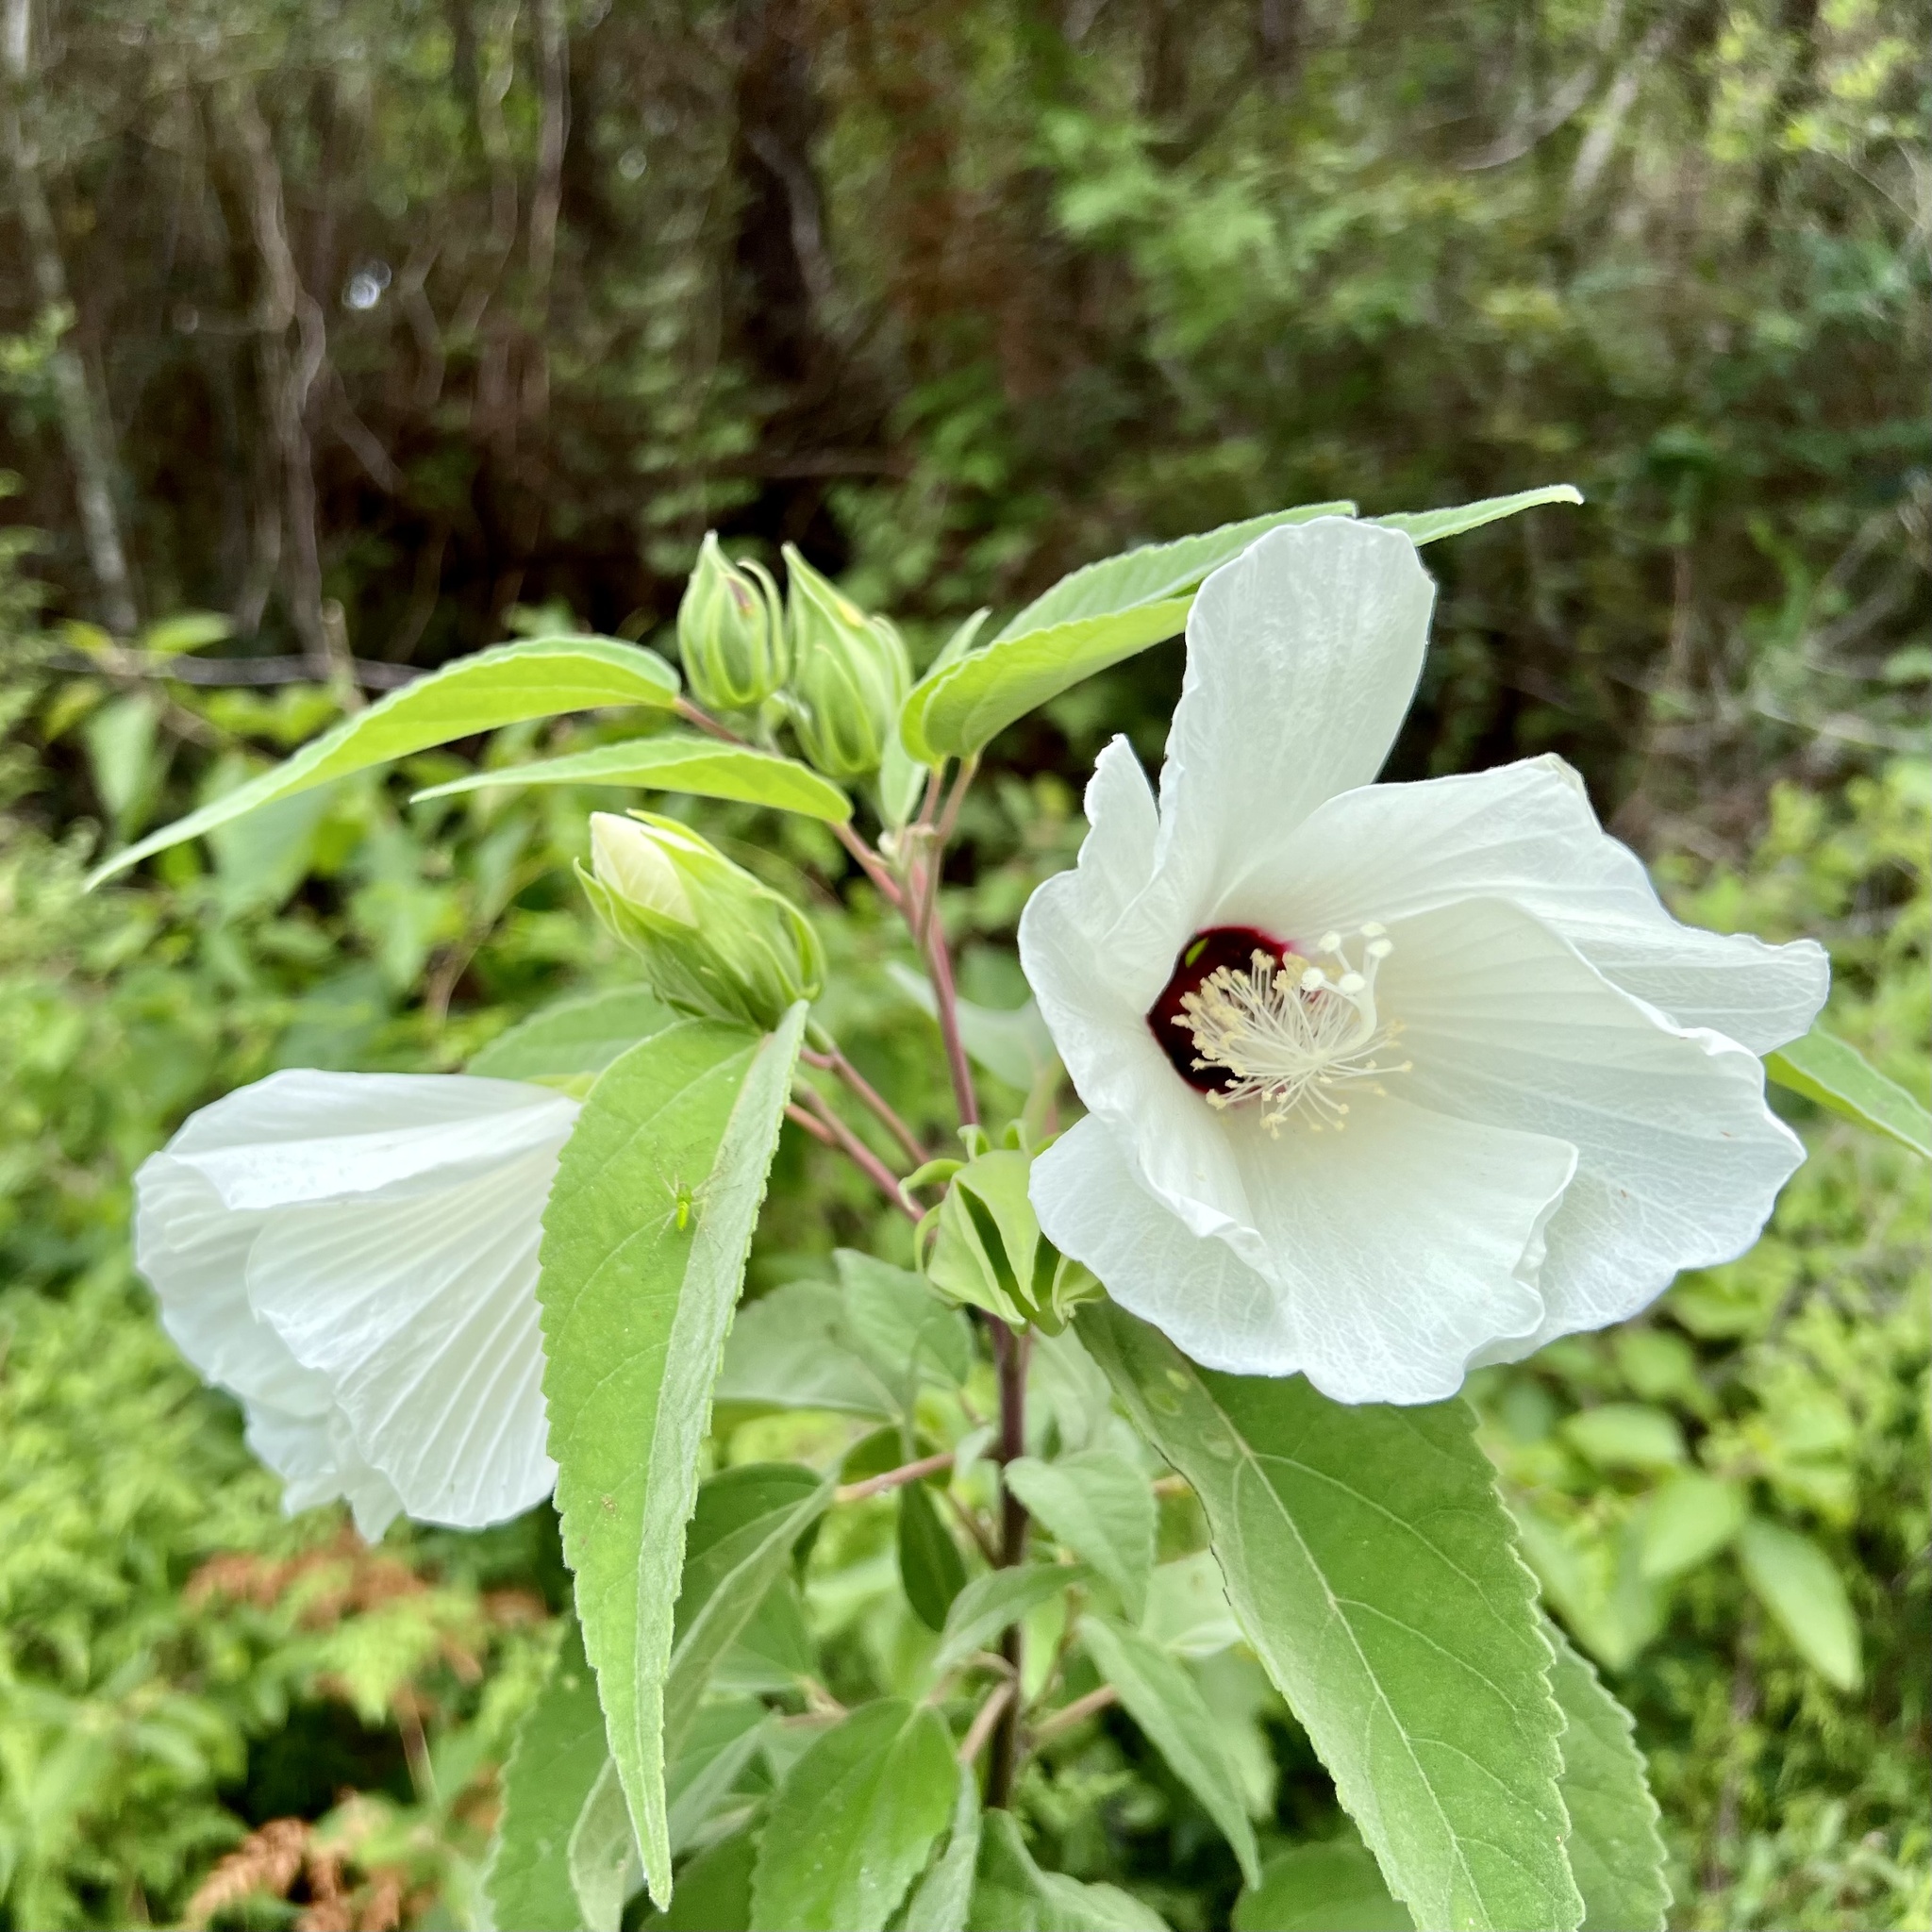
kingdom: Plantae
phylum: Tracheophyta
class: Magnoliopsida
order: Malvales
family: Malvaceae
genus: Hibiscus
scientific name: Hibiscus moscheutos
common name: Common rose-mallow
